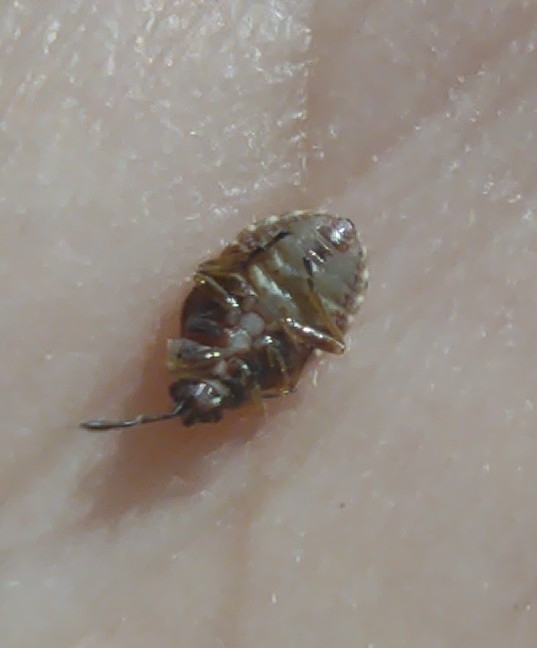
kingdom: Animalia
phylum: Arthropoda
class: Insecta
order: Hemiptera
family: Lygaeidae
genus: Kleidocerys
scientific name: Kleidocerys resedae
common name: Birch catkin bug
